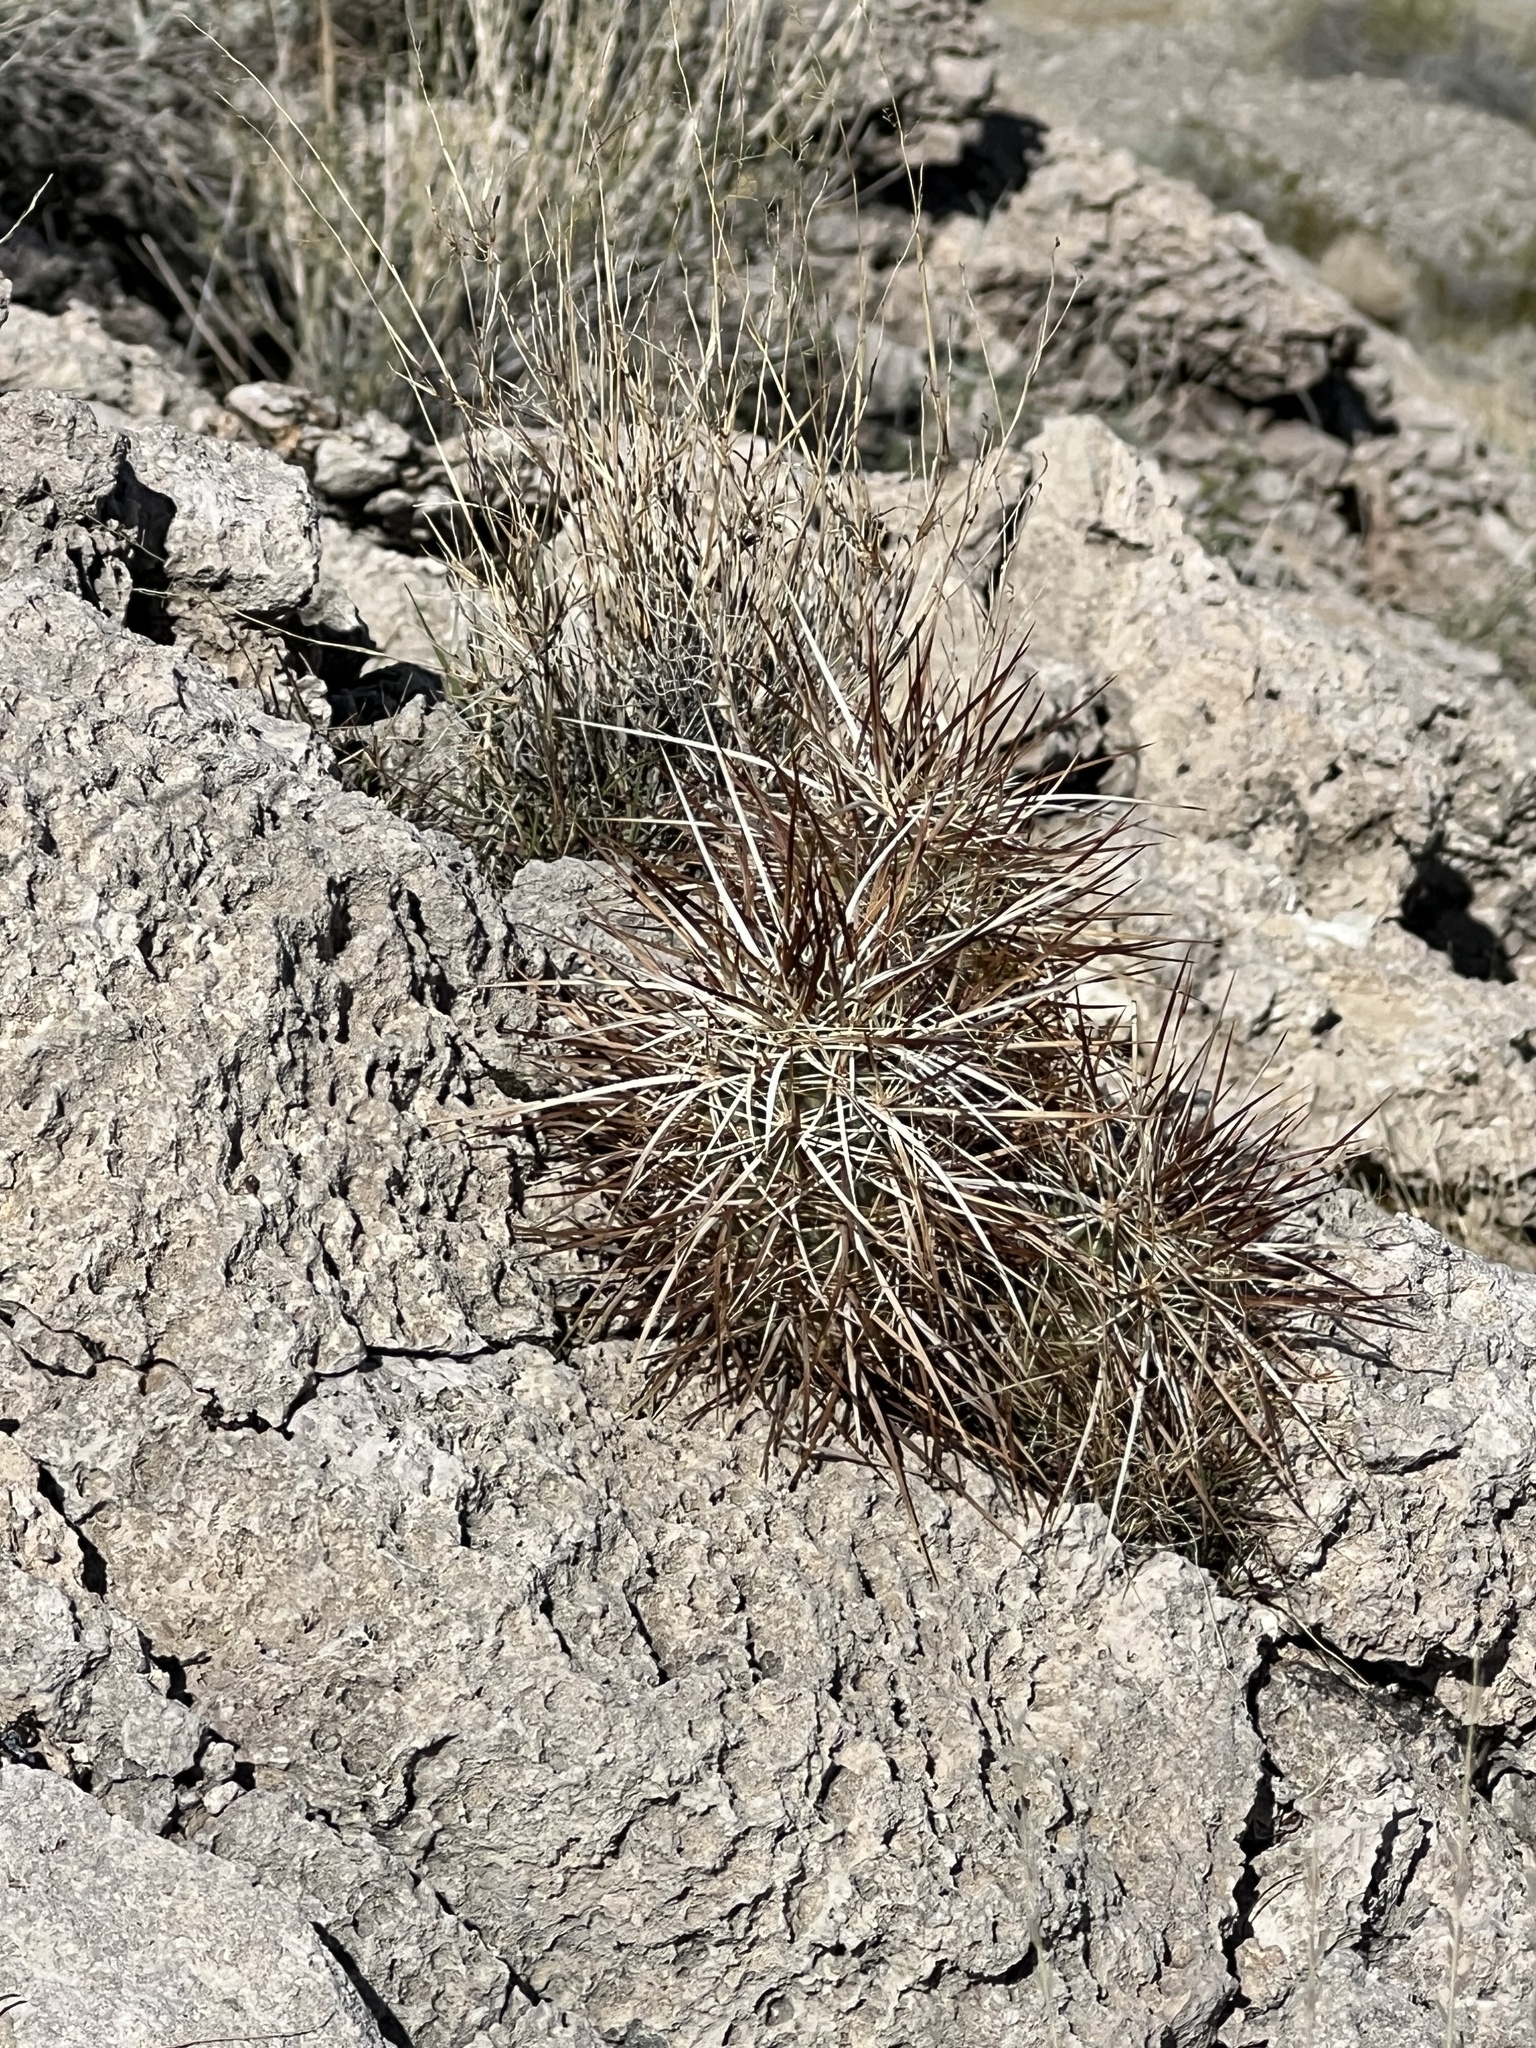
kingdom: Plantae
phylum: Tracheophyta
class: Magnoliopsida
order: Caryophyllales
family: Cactaceae
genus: Echinocereus
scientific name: Echinocereus engelmannii
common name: Engelmann's hedgehog cactus
